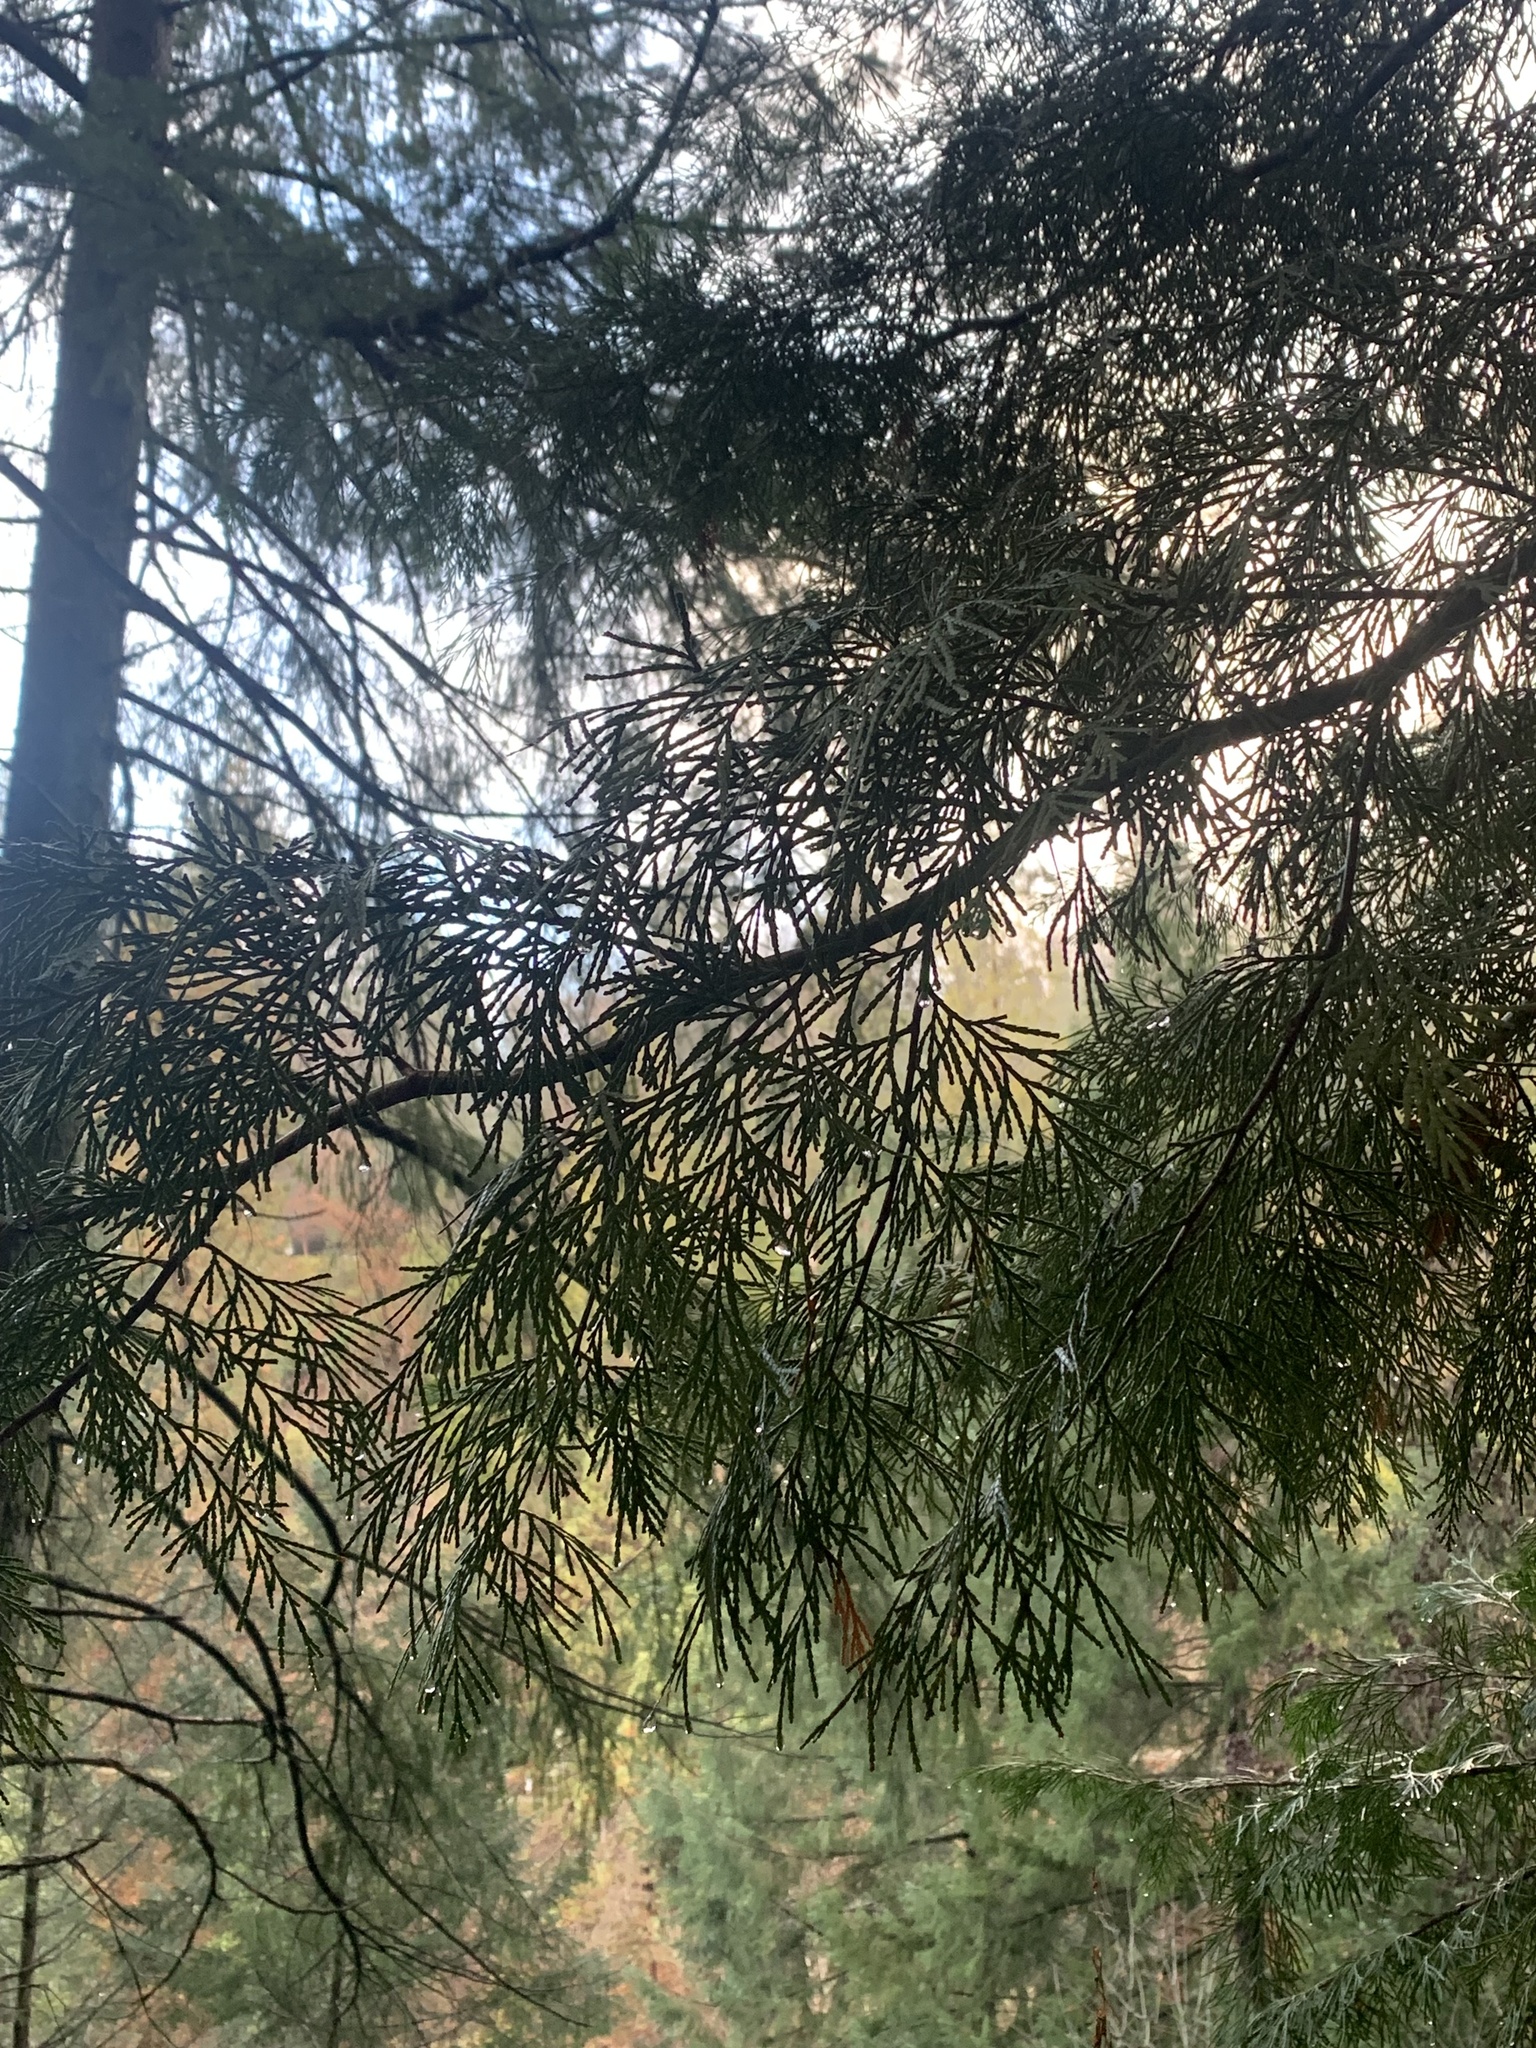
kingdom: Plantae
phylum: Tracheophyta
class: Pinopsida
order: Pinales
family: Cupressaceae
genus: Calocedrus
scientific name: Calocedrus decurrens
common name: Californian incense-cedar
